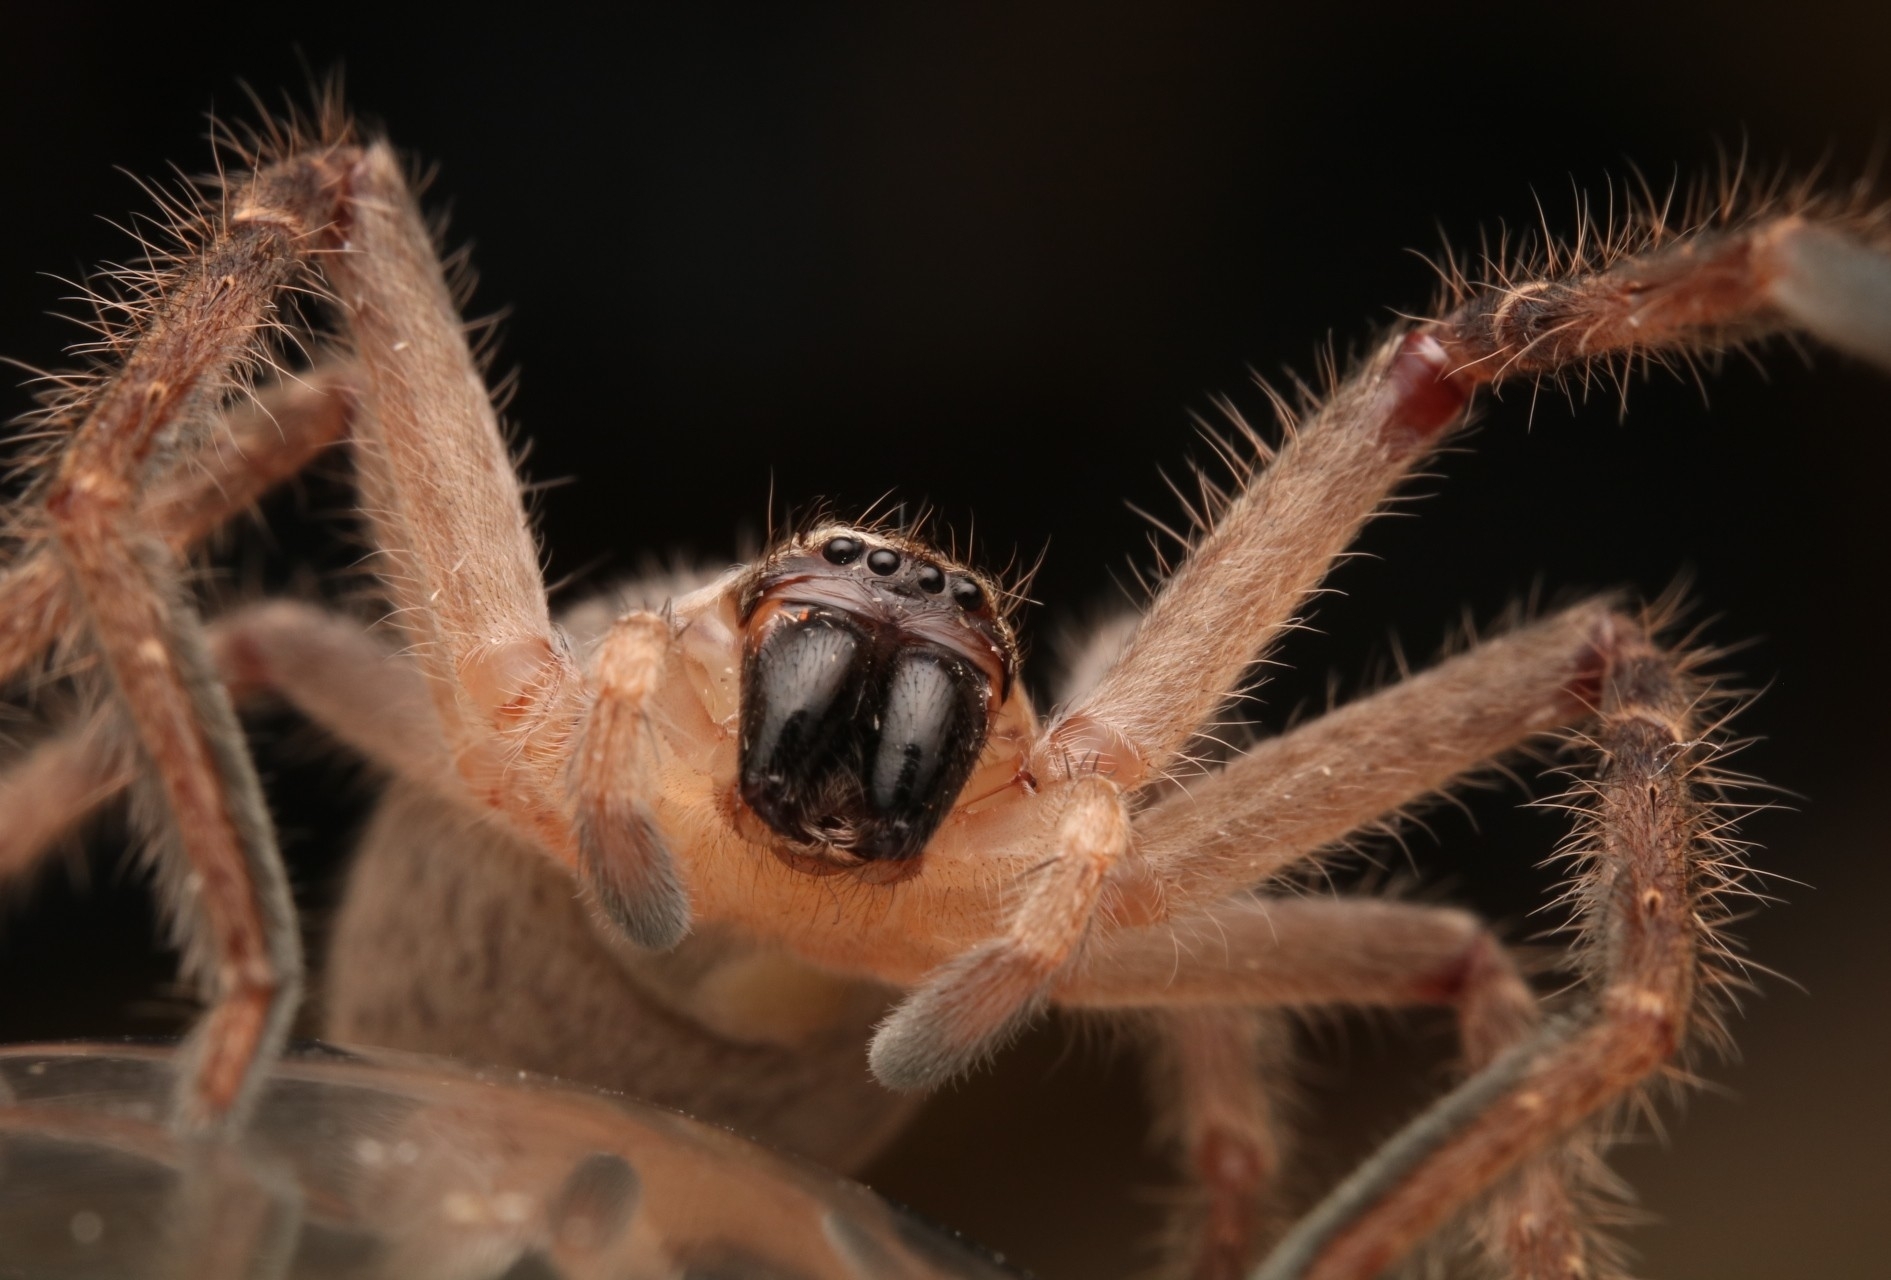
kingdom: Animalia
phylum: Arthropoda
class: Arachnida
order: Araneae
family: Sparassidae
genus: Olios
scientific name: Olios giganteus
